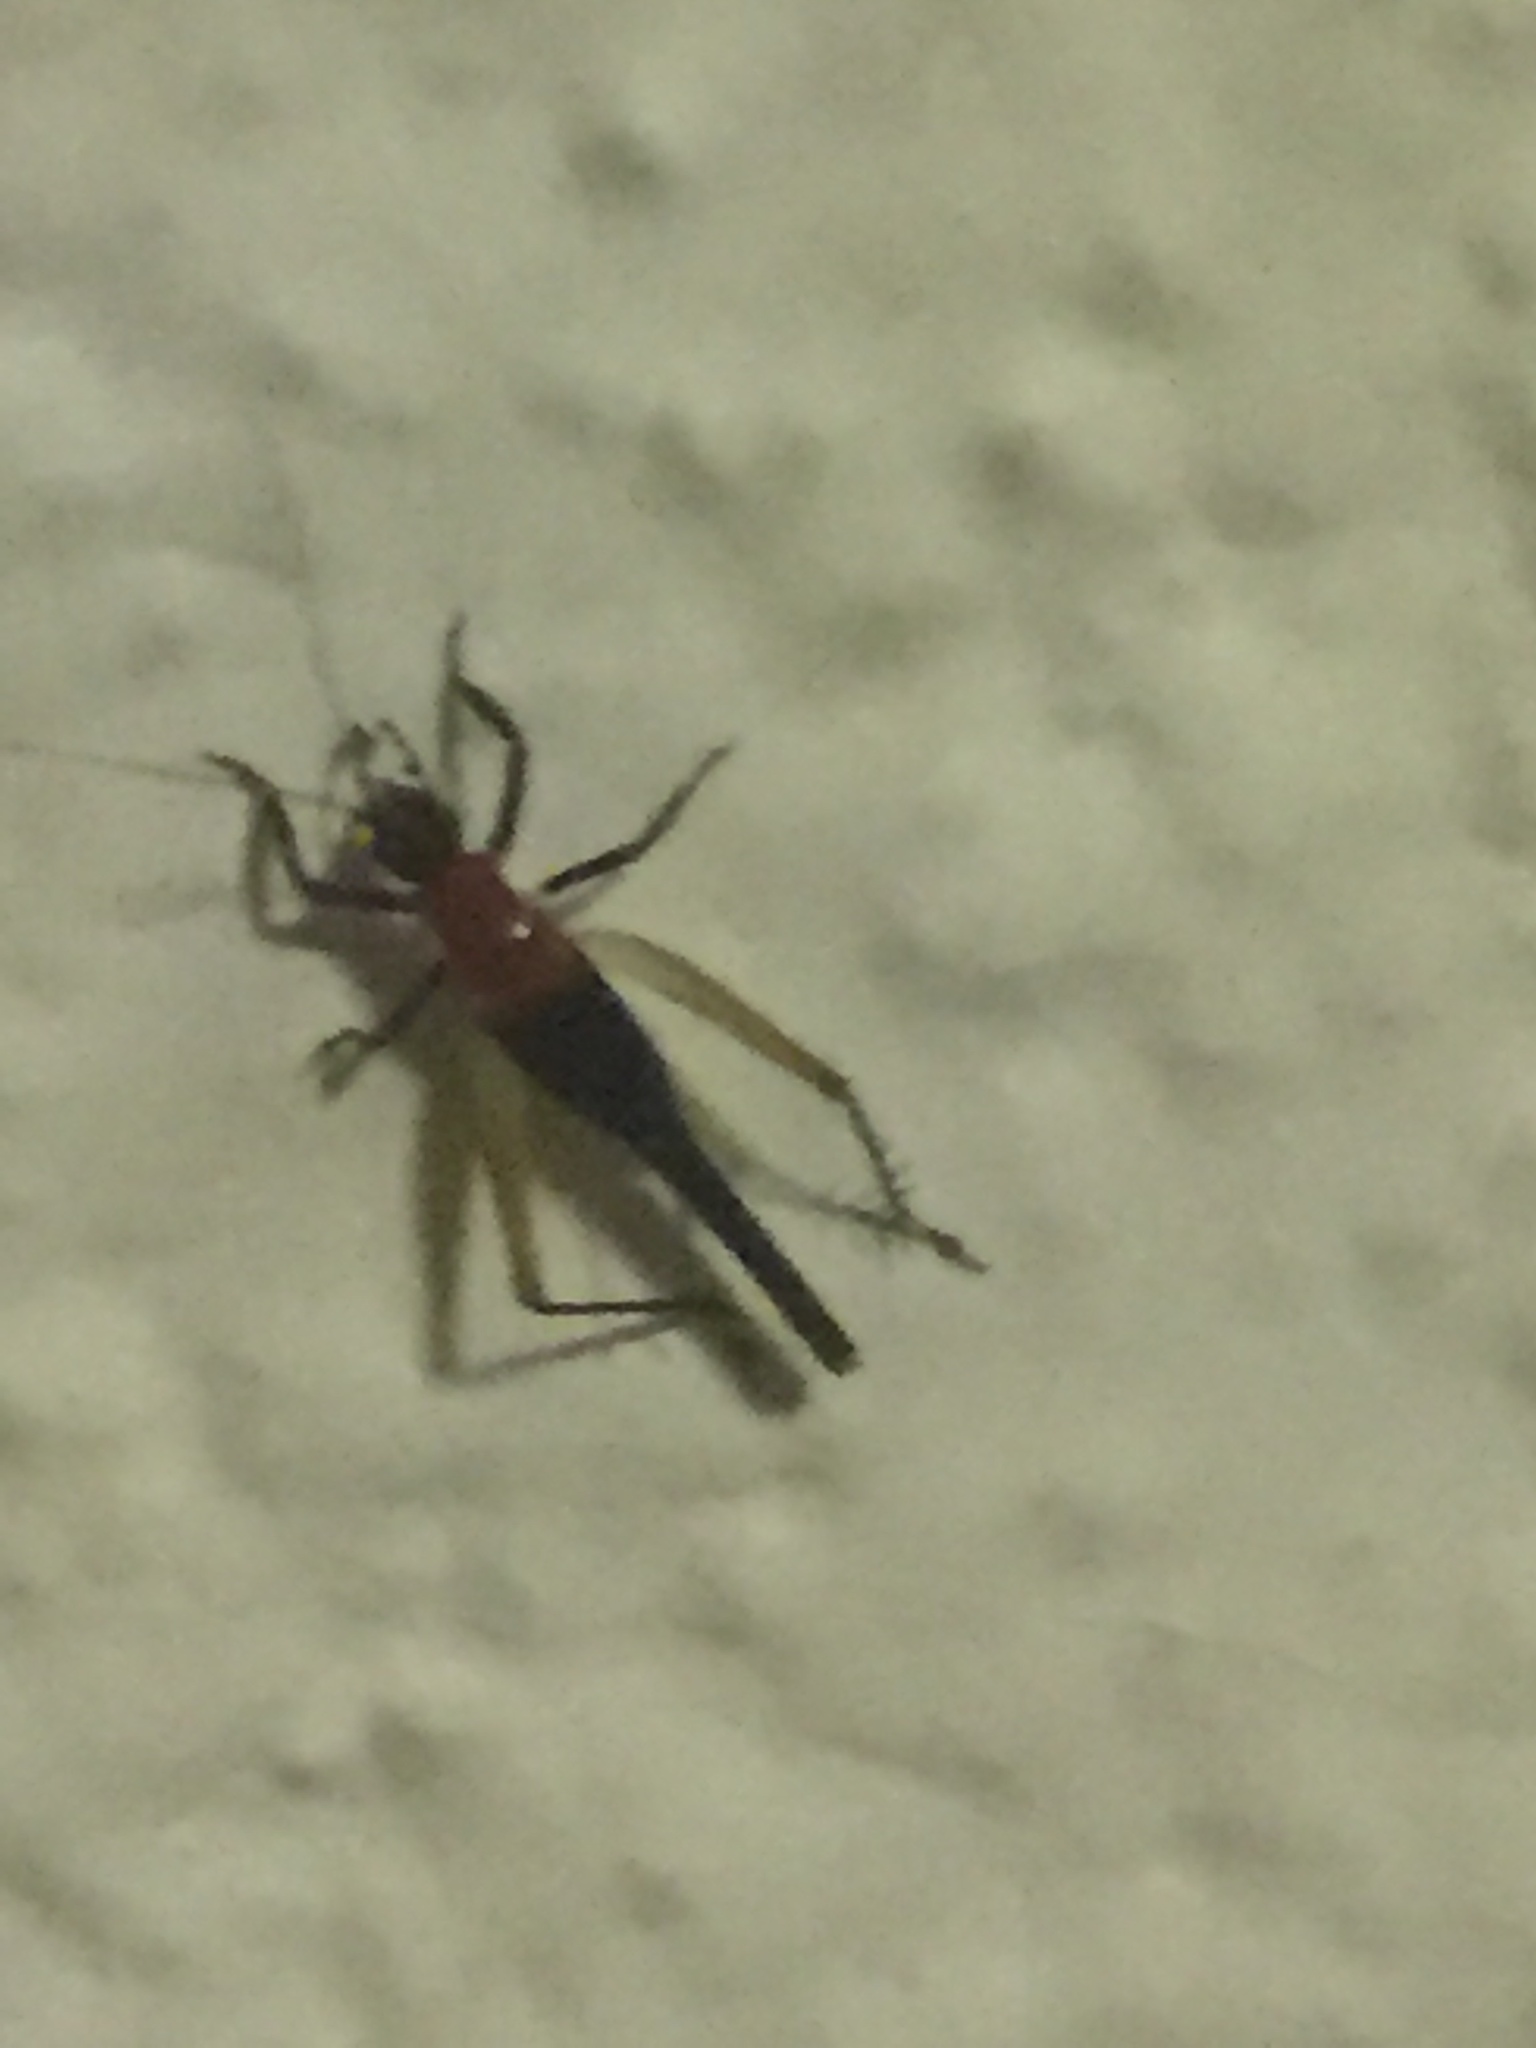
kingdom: Animalia
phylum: Arthropoda
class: Insecta
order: Orthoptera
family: Trigonidiidae
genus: Homoeoxipha
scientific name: Homoeoxipha lycoides
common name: Tinkling leaf-runner
